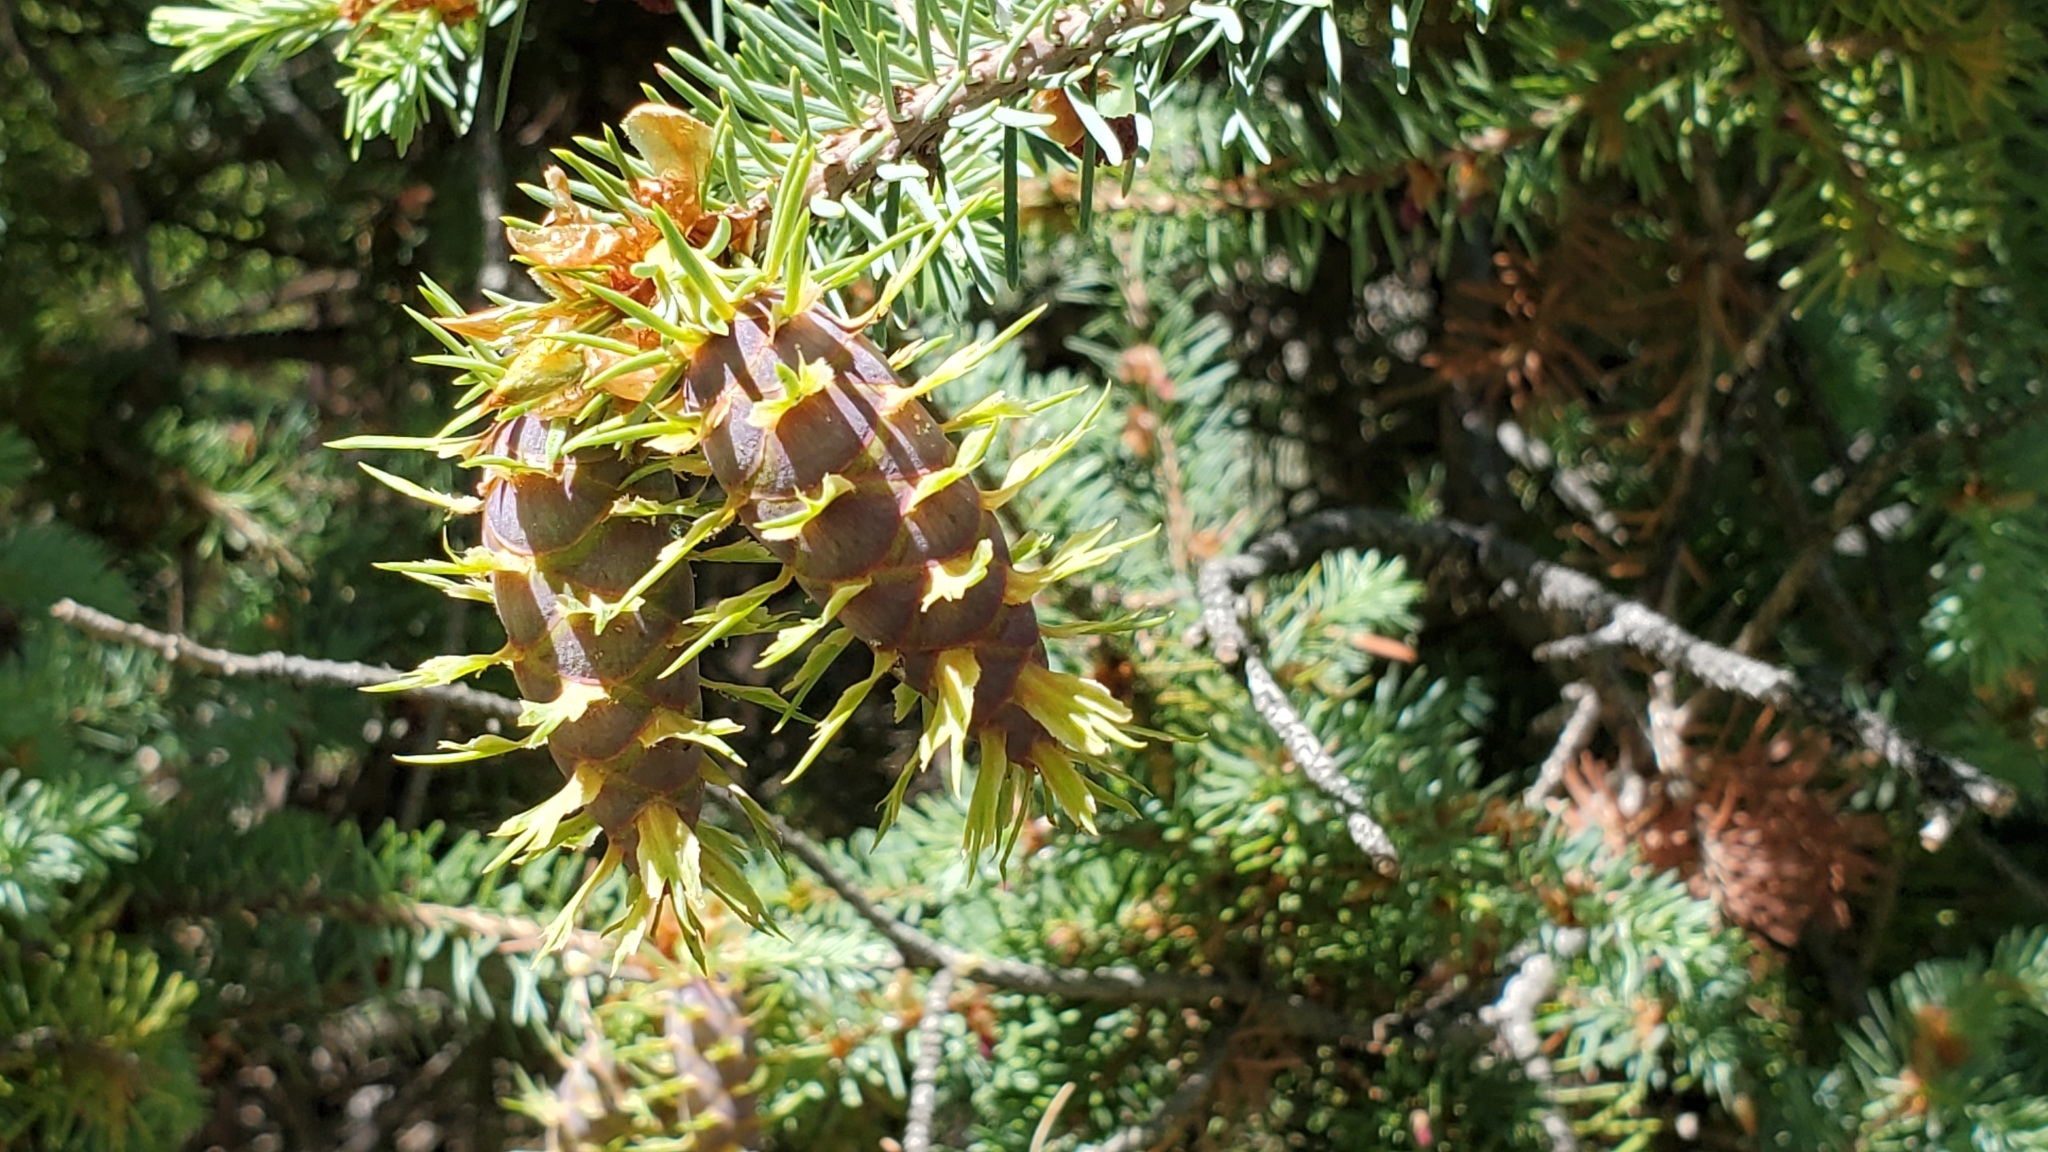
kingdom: Plantae
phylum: Tracheophyta
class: Pinopsida
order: Pinales
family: Pinaceae
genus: Pseudotsuga
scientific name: Pseudotsuga menziesii
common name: Douglas fir
